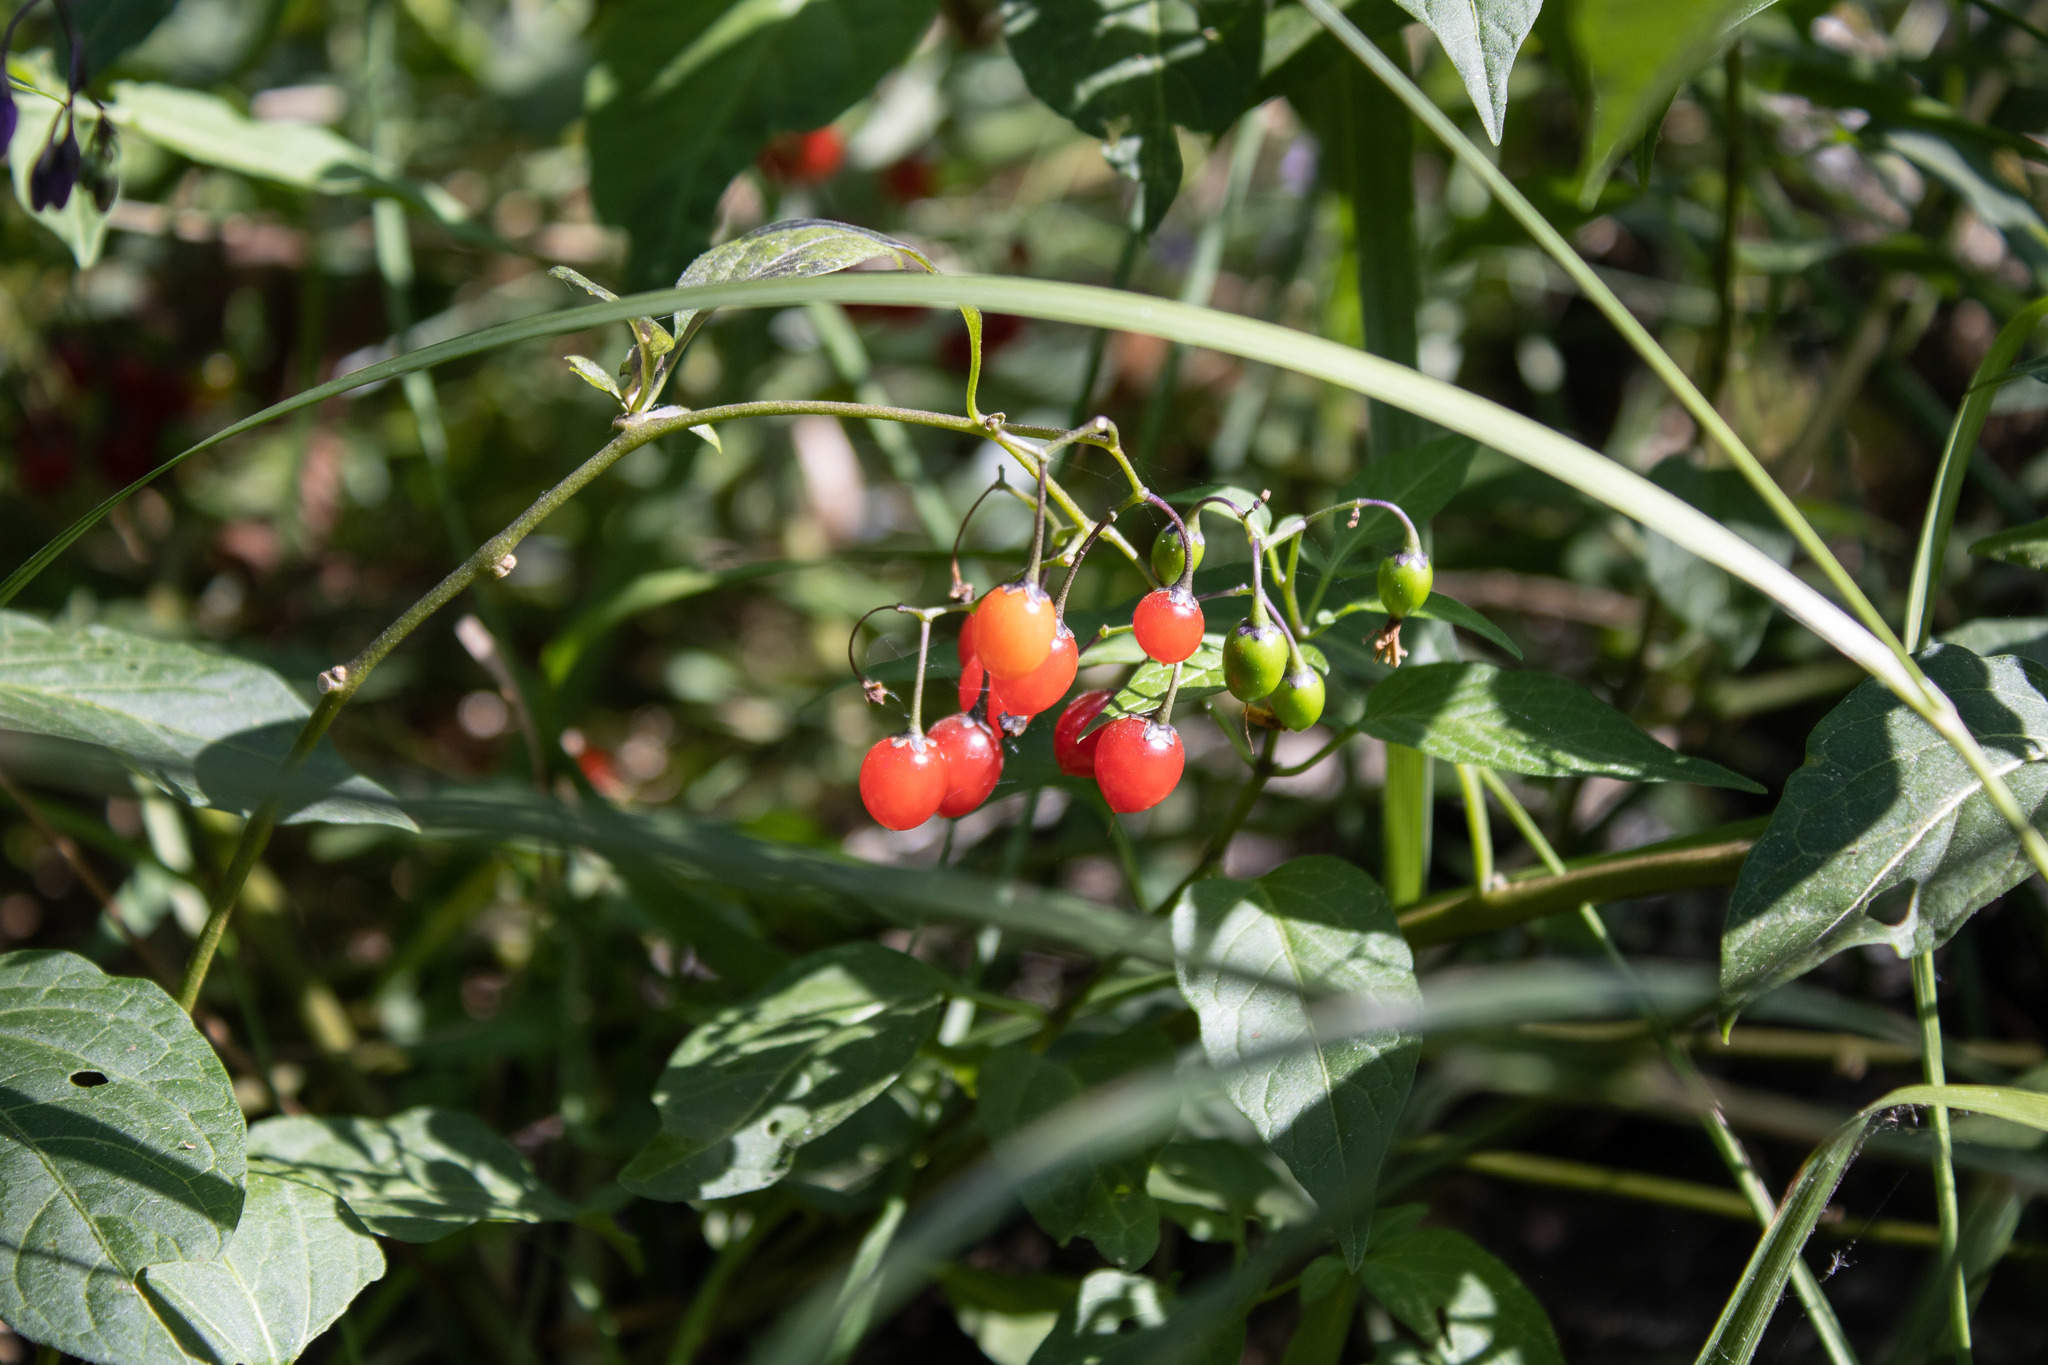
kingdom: Plantae
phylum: Tracheophyta
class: Magnoliopsida
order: Solanales
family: Solanaceae
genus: Solanum
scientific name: Solanum dulcamara
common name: Climbing nightshade
